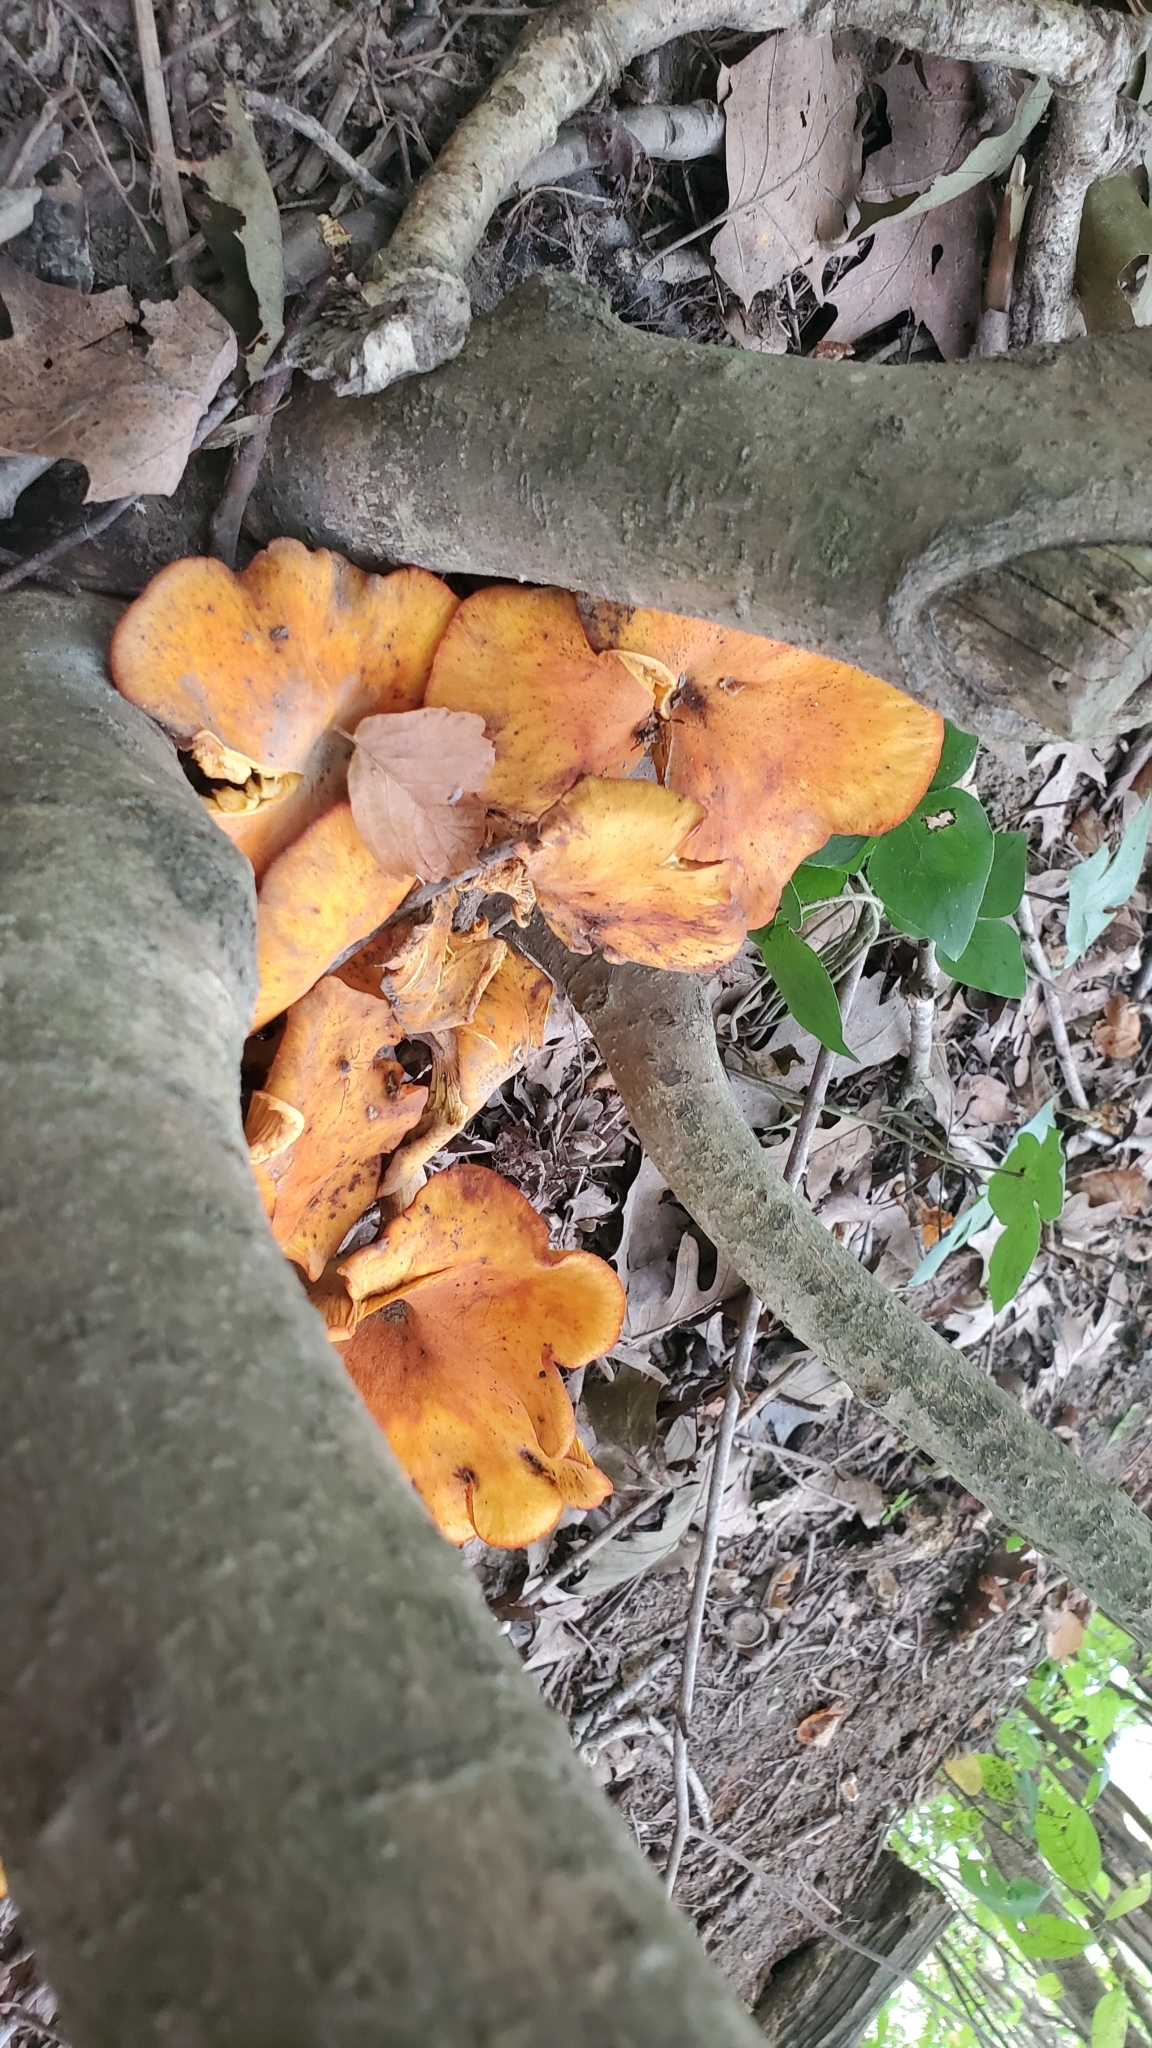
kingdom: Fungi
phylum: Basidiomycota
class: Agaricomycetes
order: Agaricales
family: Omphalotaceae
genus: Omphalotus
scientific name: Omphalotus illudens
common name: Jack o lantern
